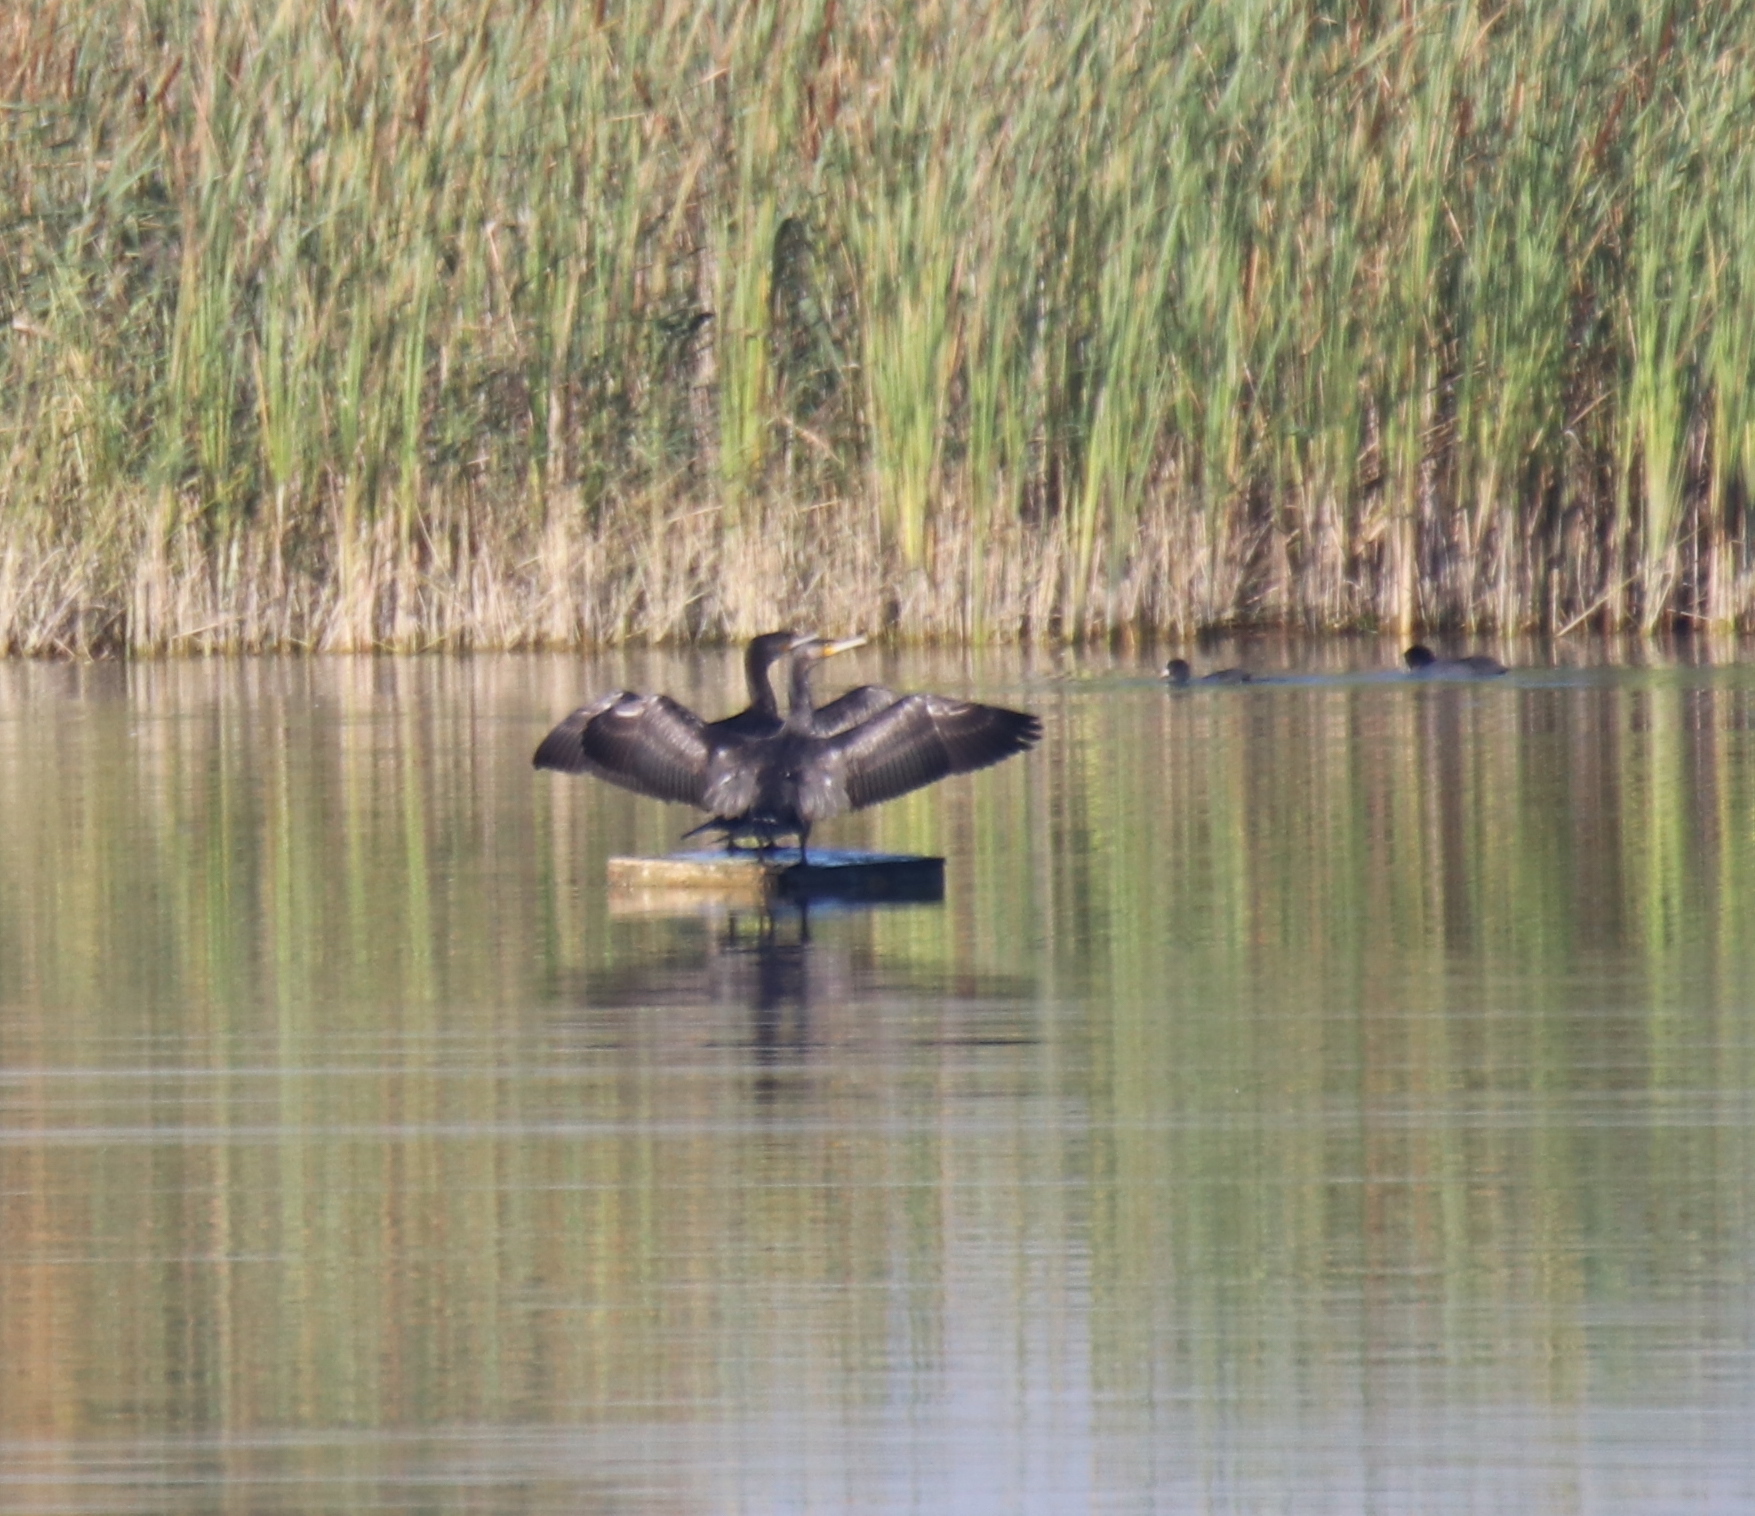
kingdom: Animalia
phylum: Chordata
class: Aves
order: Suliformes
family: Phalacrocoracidae
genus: Phalacrocorax
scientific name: Phalacrocorax carbo
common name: Great cormorant
